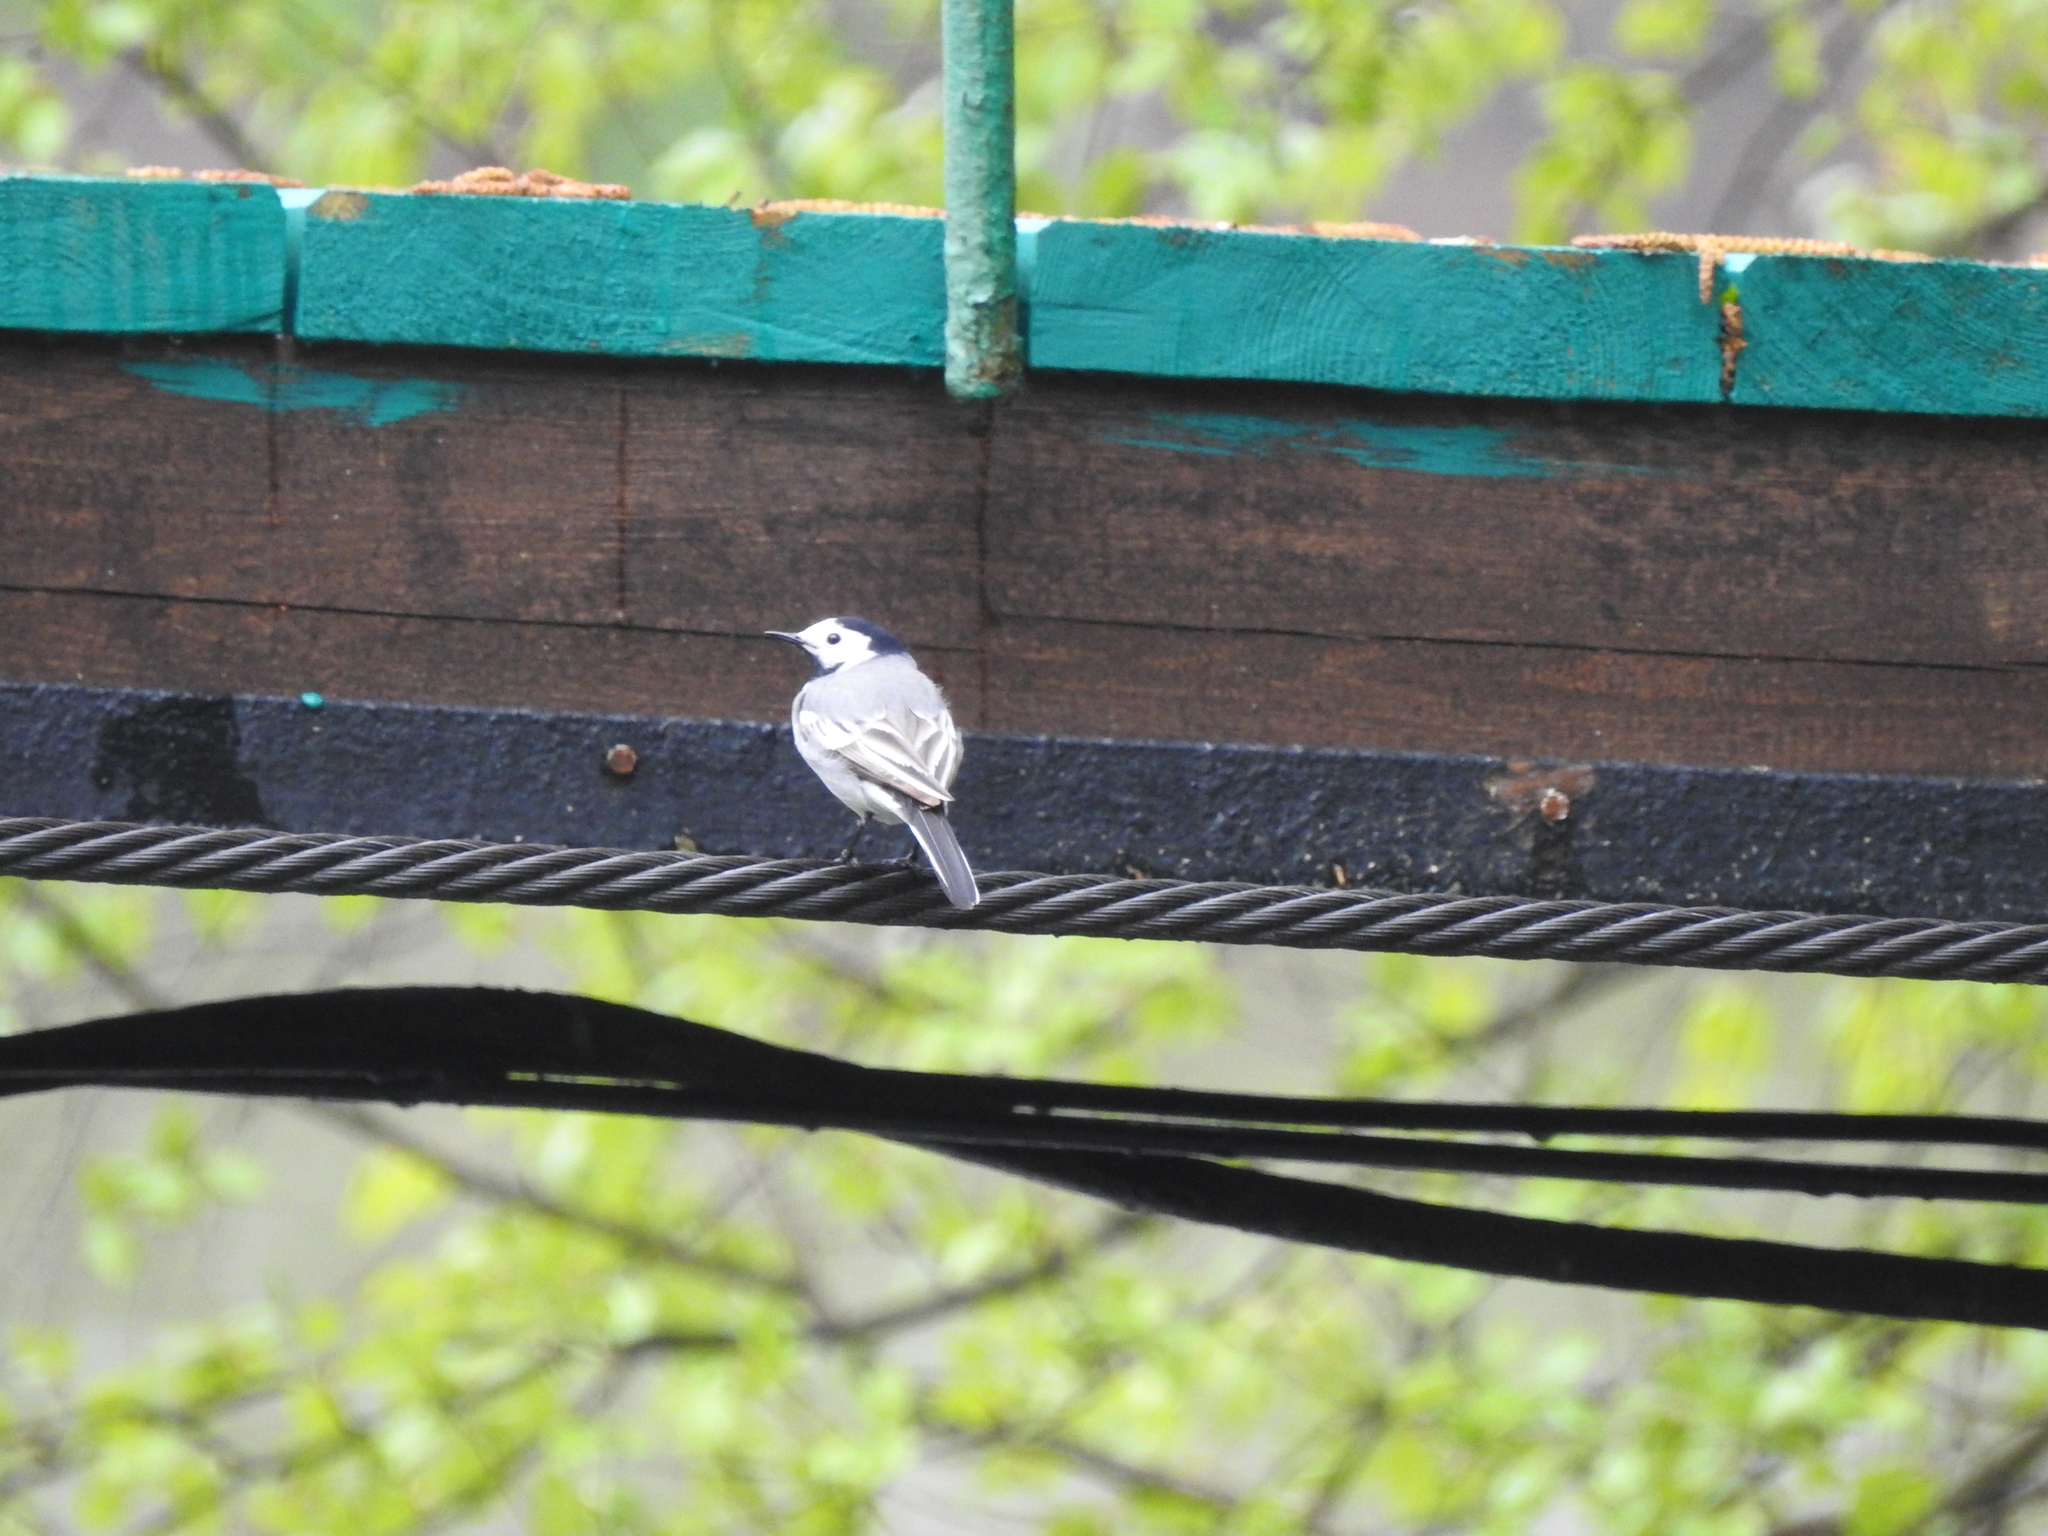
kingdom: Animalia
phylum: Chordata
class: Aves
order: Passeriformes
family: Motacillidae
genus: Motacilla
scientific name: Motacilla alba
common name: White wagtail
